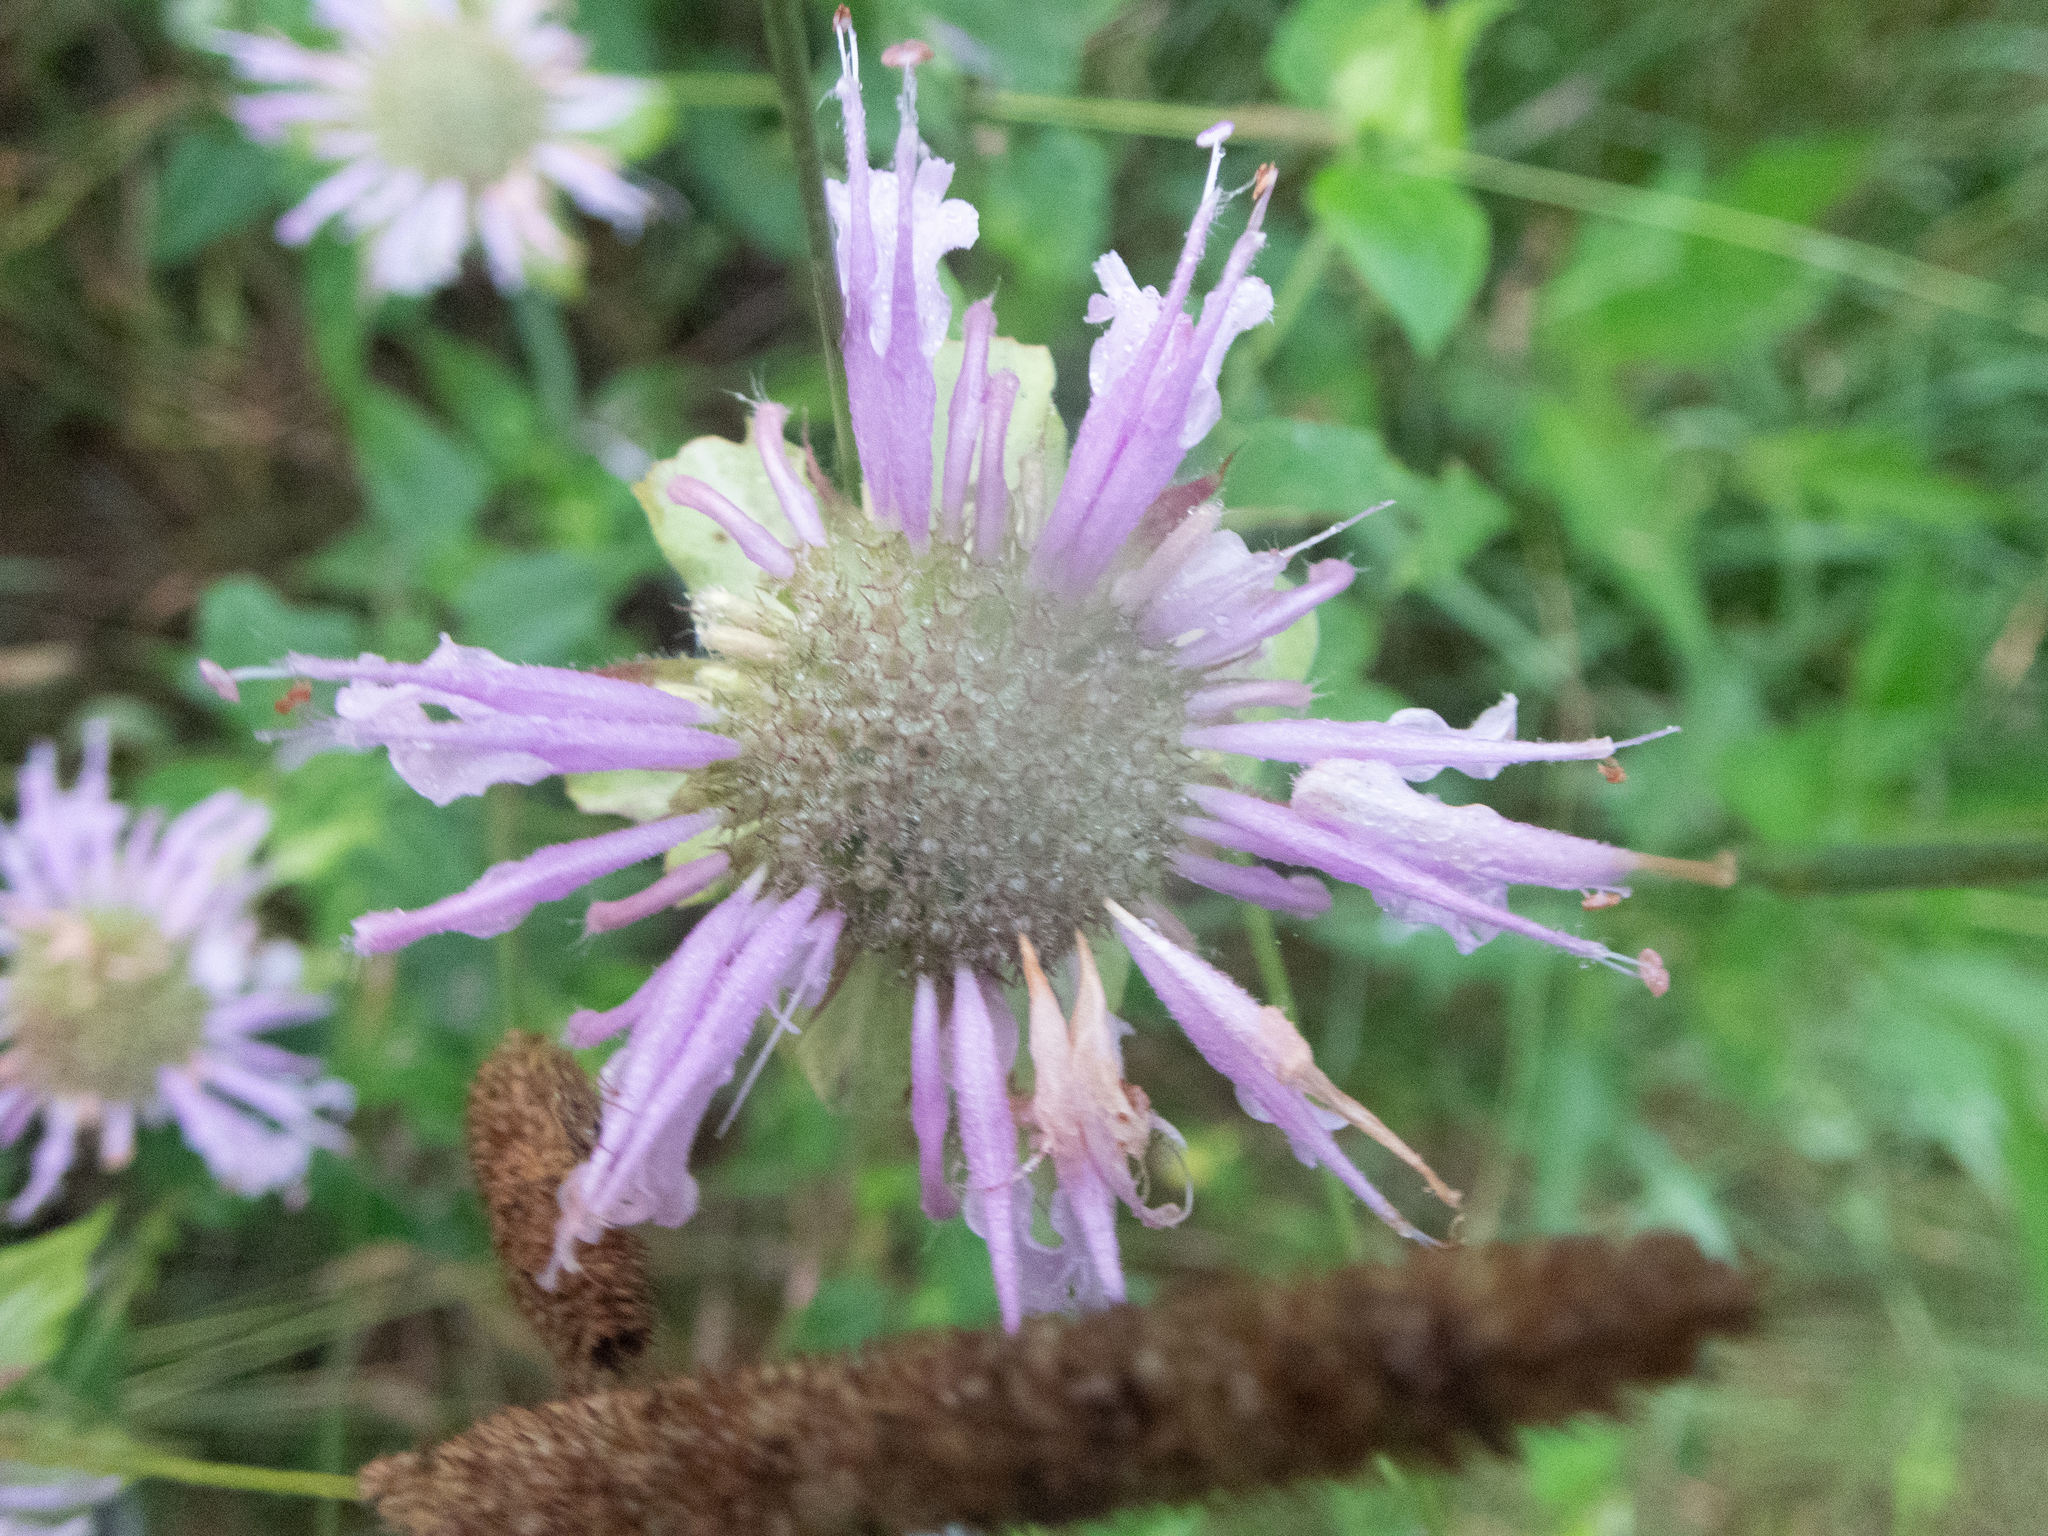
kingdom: Plantae
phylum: Tracheophyta
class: Magnoliopsida
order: Lamiales
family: Lamiaceae
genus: Monarda
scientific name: Monarda fistulosa
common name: Purple beebalm
